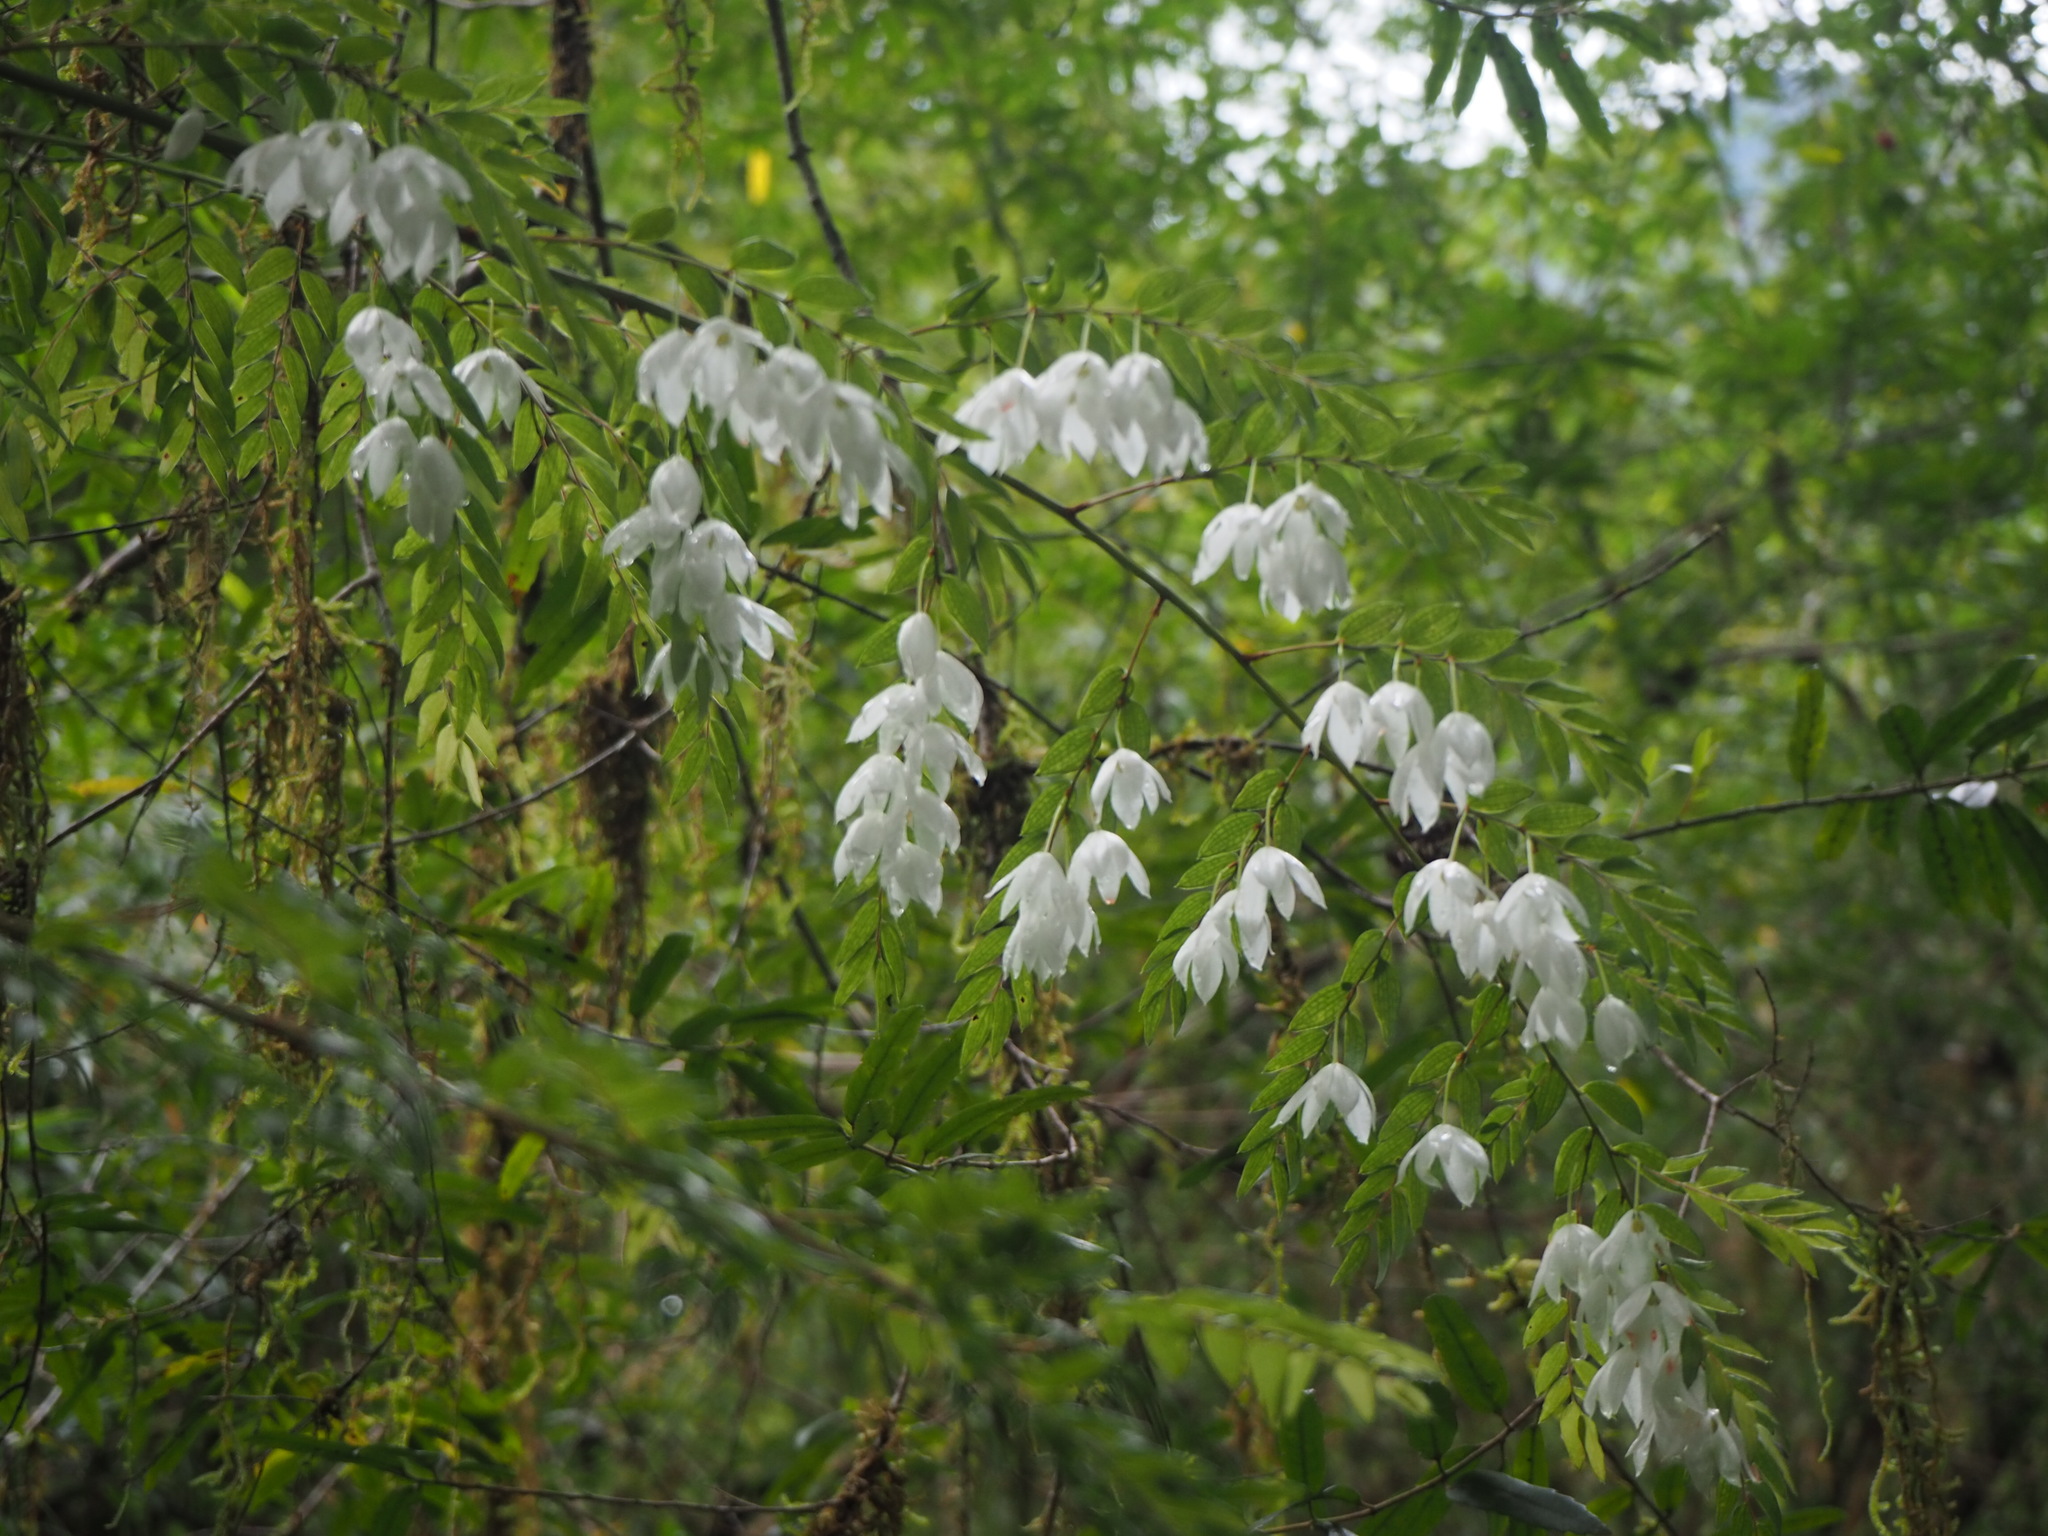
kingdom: Plantae
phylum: Tracheophyta
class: Liliopsida
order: Liliales
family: Alstroemeriaceae
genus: Luzuriaga
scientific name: Luzuriaga polyphylla
